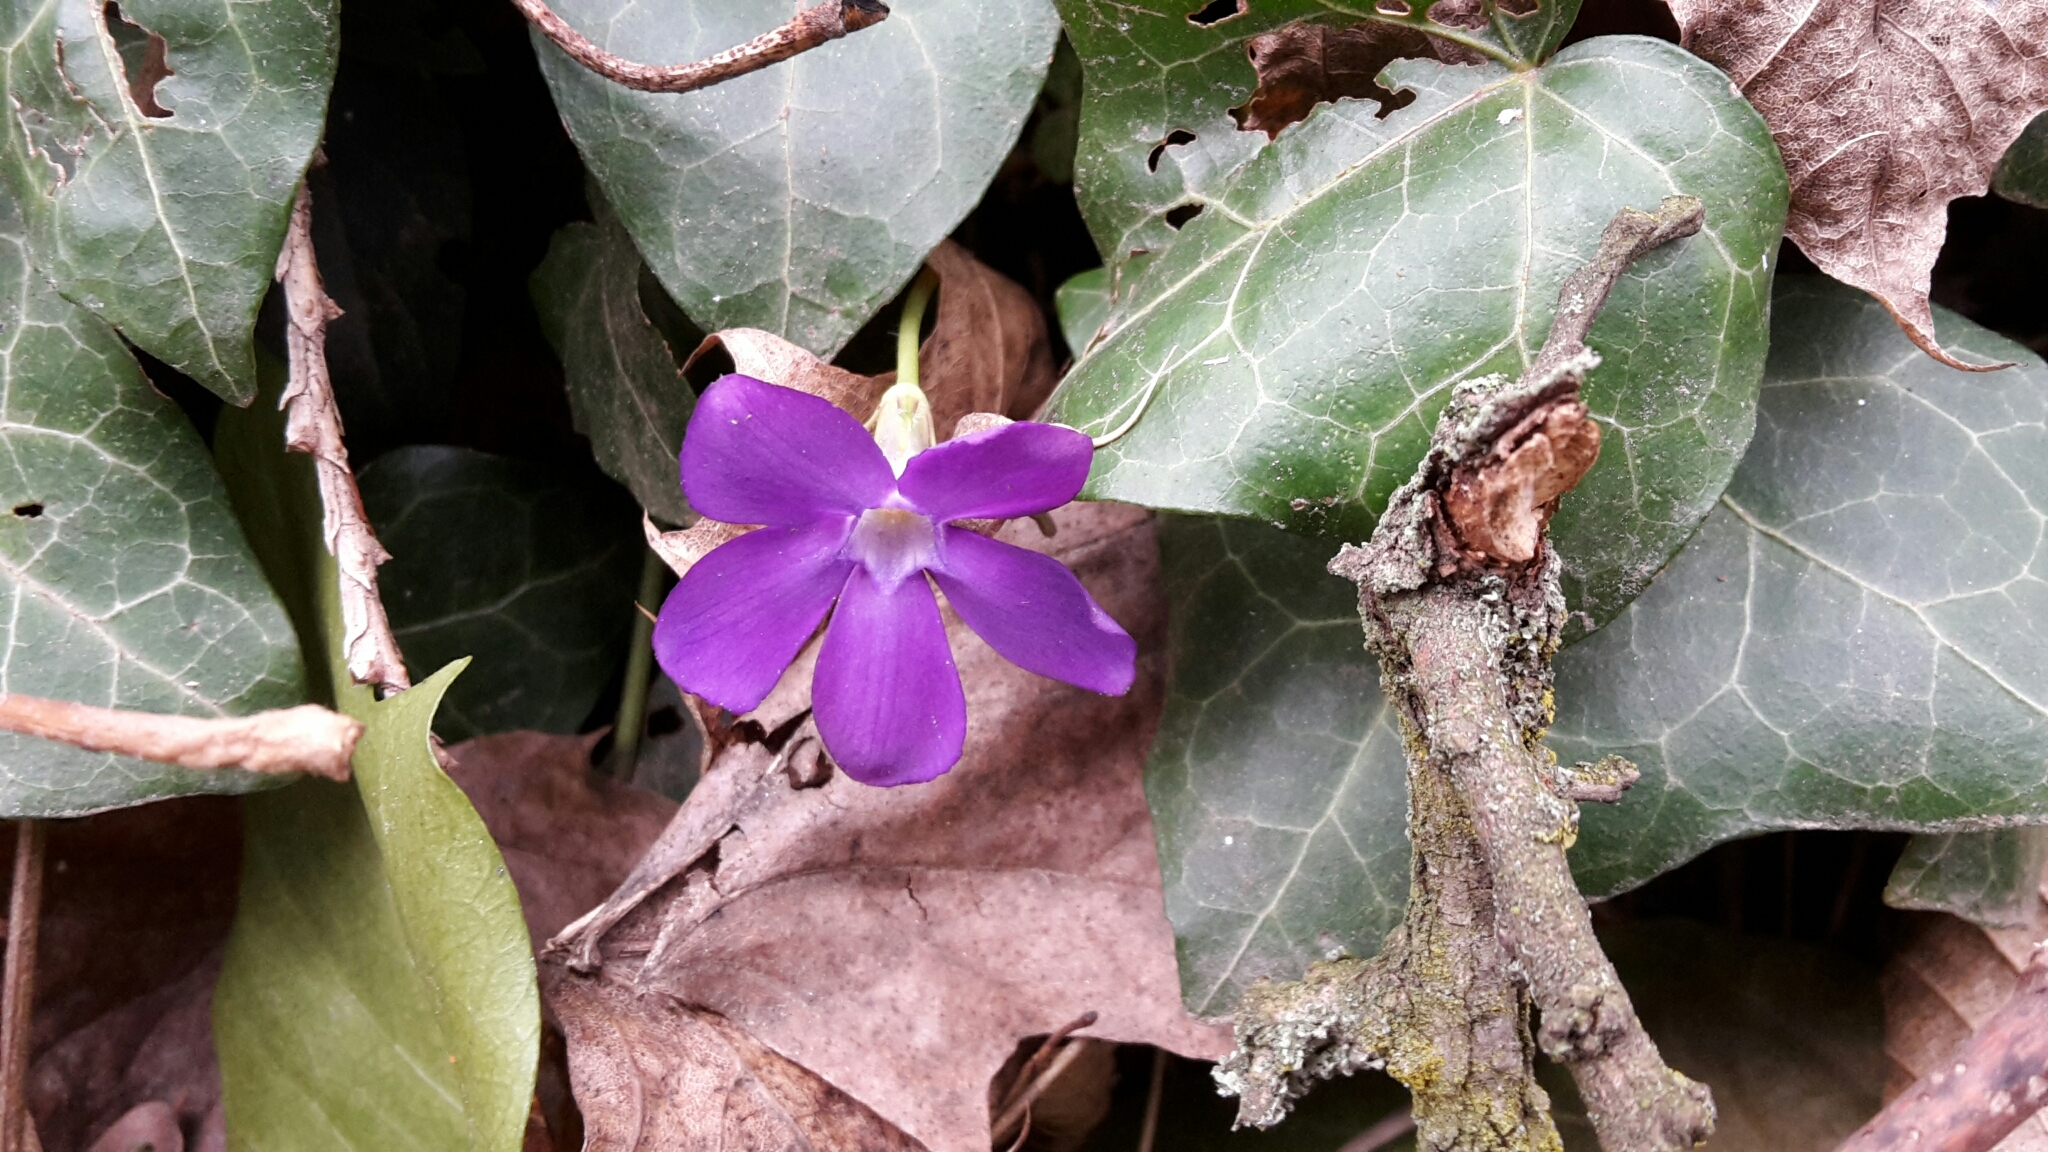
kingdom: Plantae
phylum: Tracheophyta
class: Magnoliopsida
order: Gentianales
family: Apocynaceae
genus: Vinca
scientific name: Vinca major
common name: Greater periwinkle
